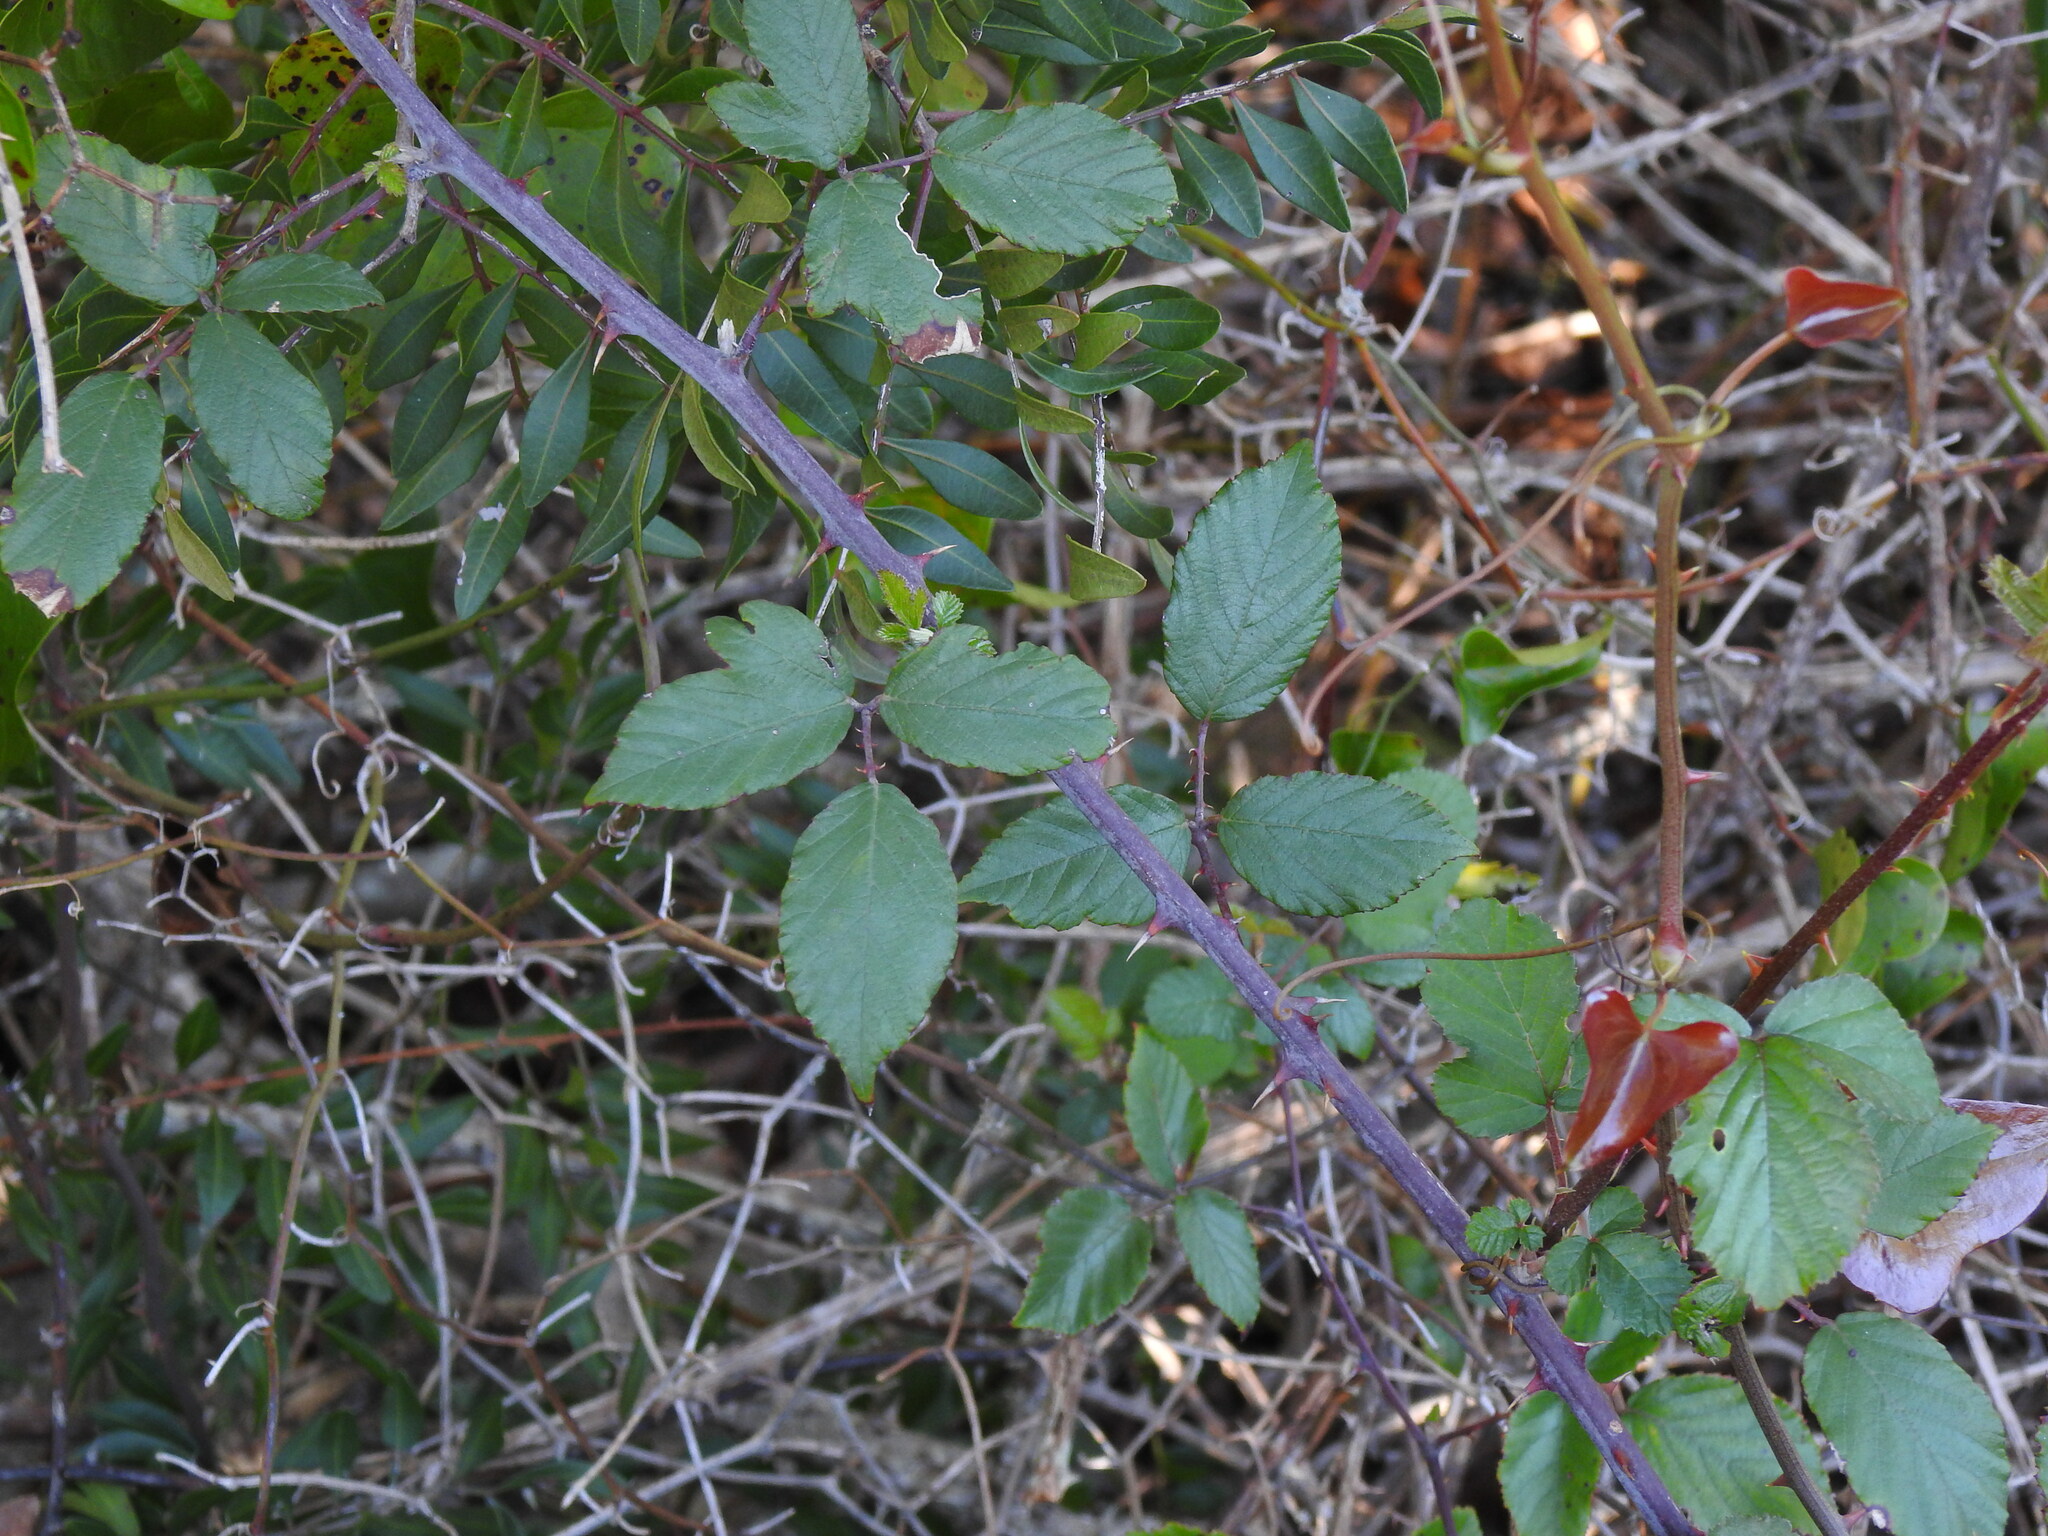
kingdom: Plantae
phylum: Tracheophyta
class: Magnoliopsida
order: Rosales
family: Rosaceae
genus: Rubus
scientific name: Rubus ulmifolius
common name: Elmleaf blackberry
